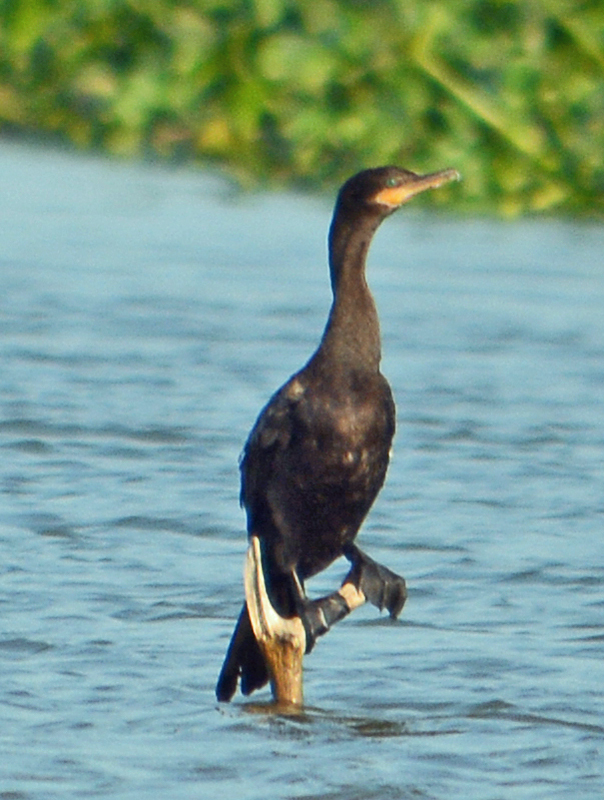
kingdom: Animalia
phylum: Chordata
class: Aves
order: Suliformes
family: Phalacrocoracidae
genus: Phalacrocorax
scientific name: Phalacrocorax brasilianus
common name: Neotropic cormorant
